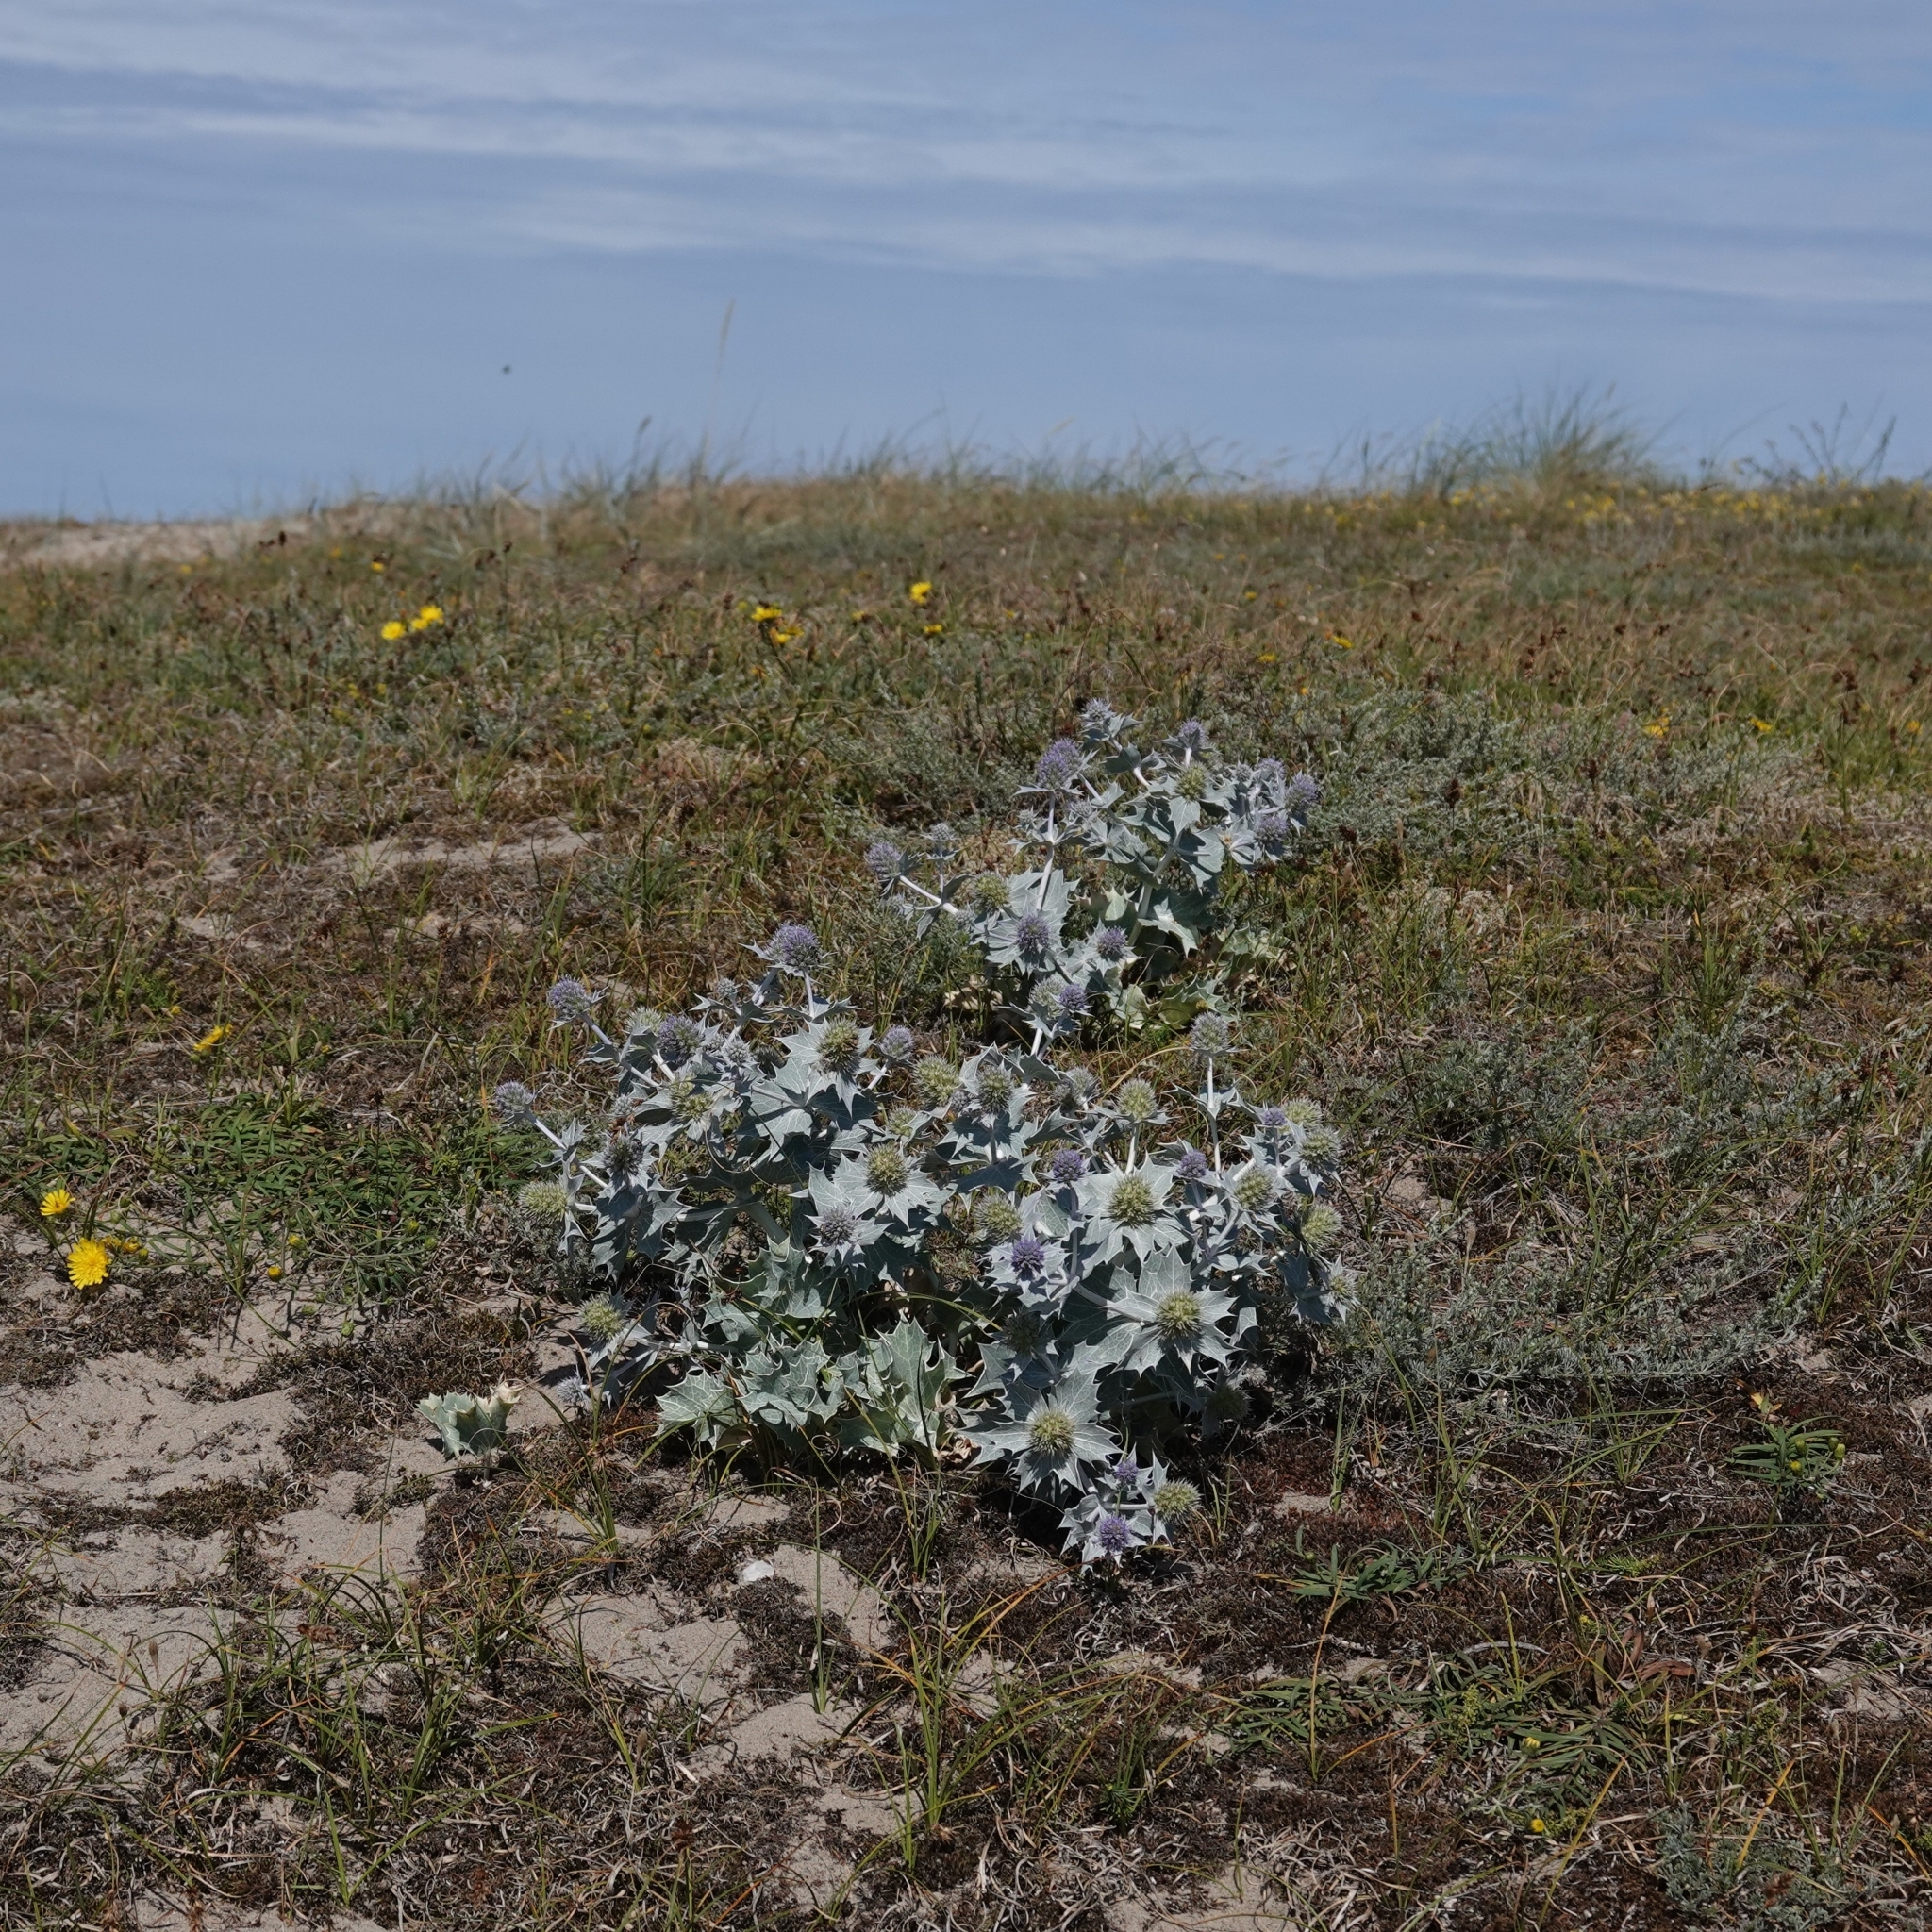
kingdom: Plantae
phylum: Tracheophyta
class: Magnoliopsida
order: Apiales
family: Apiaceae
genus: Eryngium
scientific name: Eryngium maritimum
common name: Sea-holly
